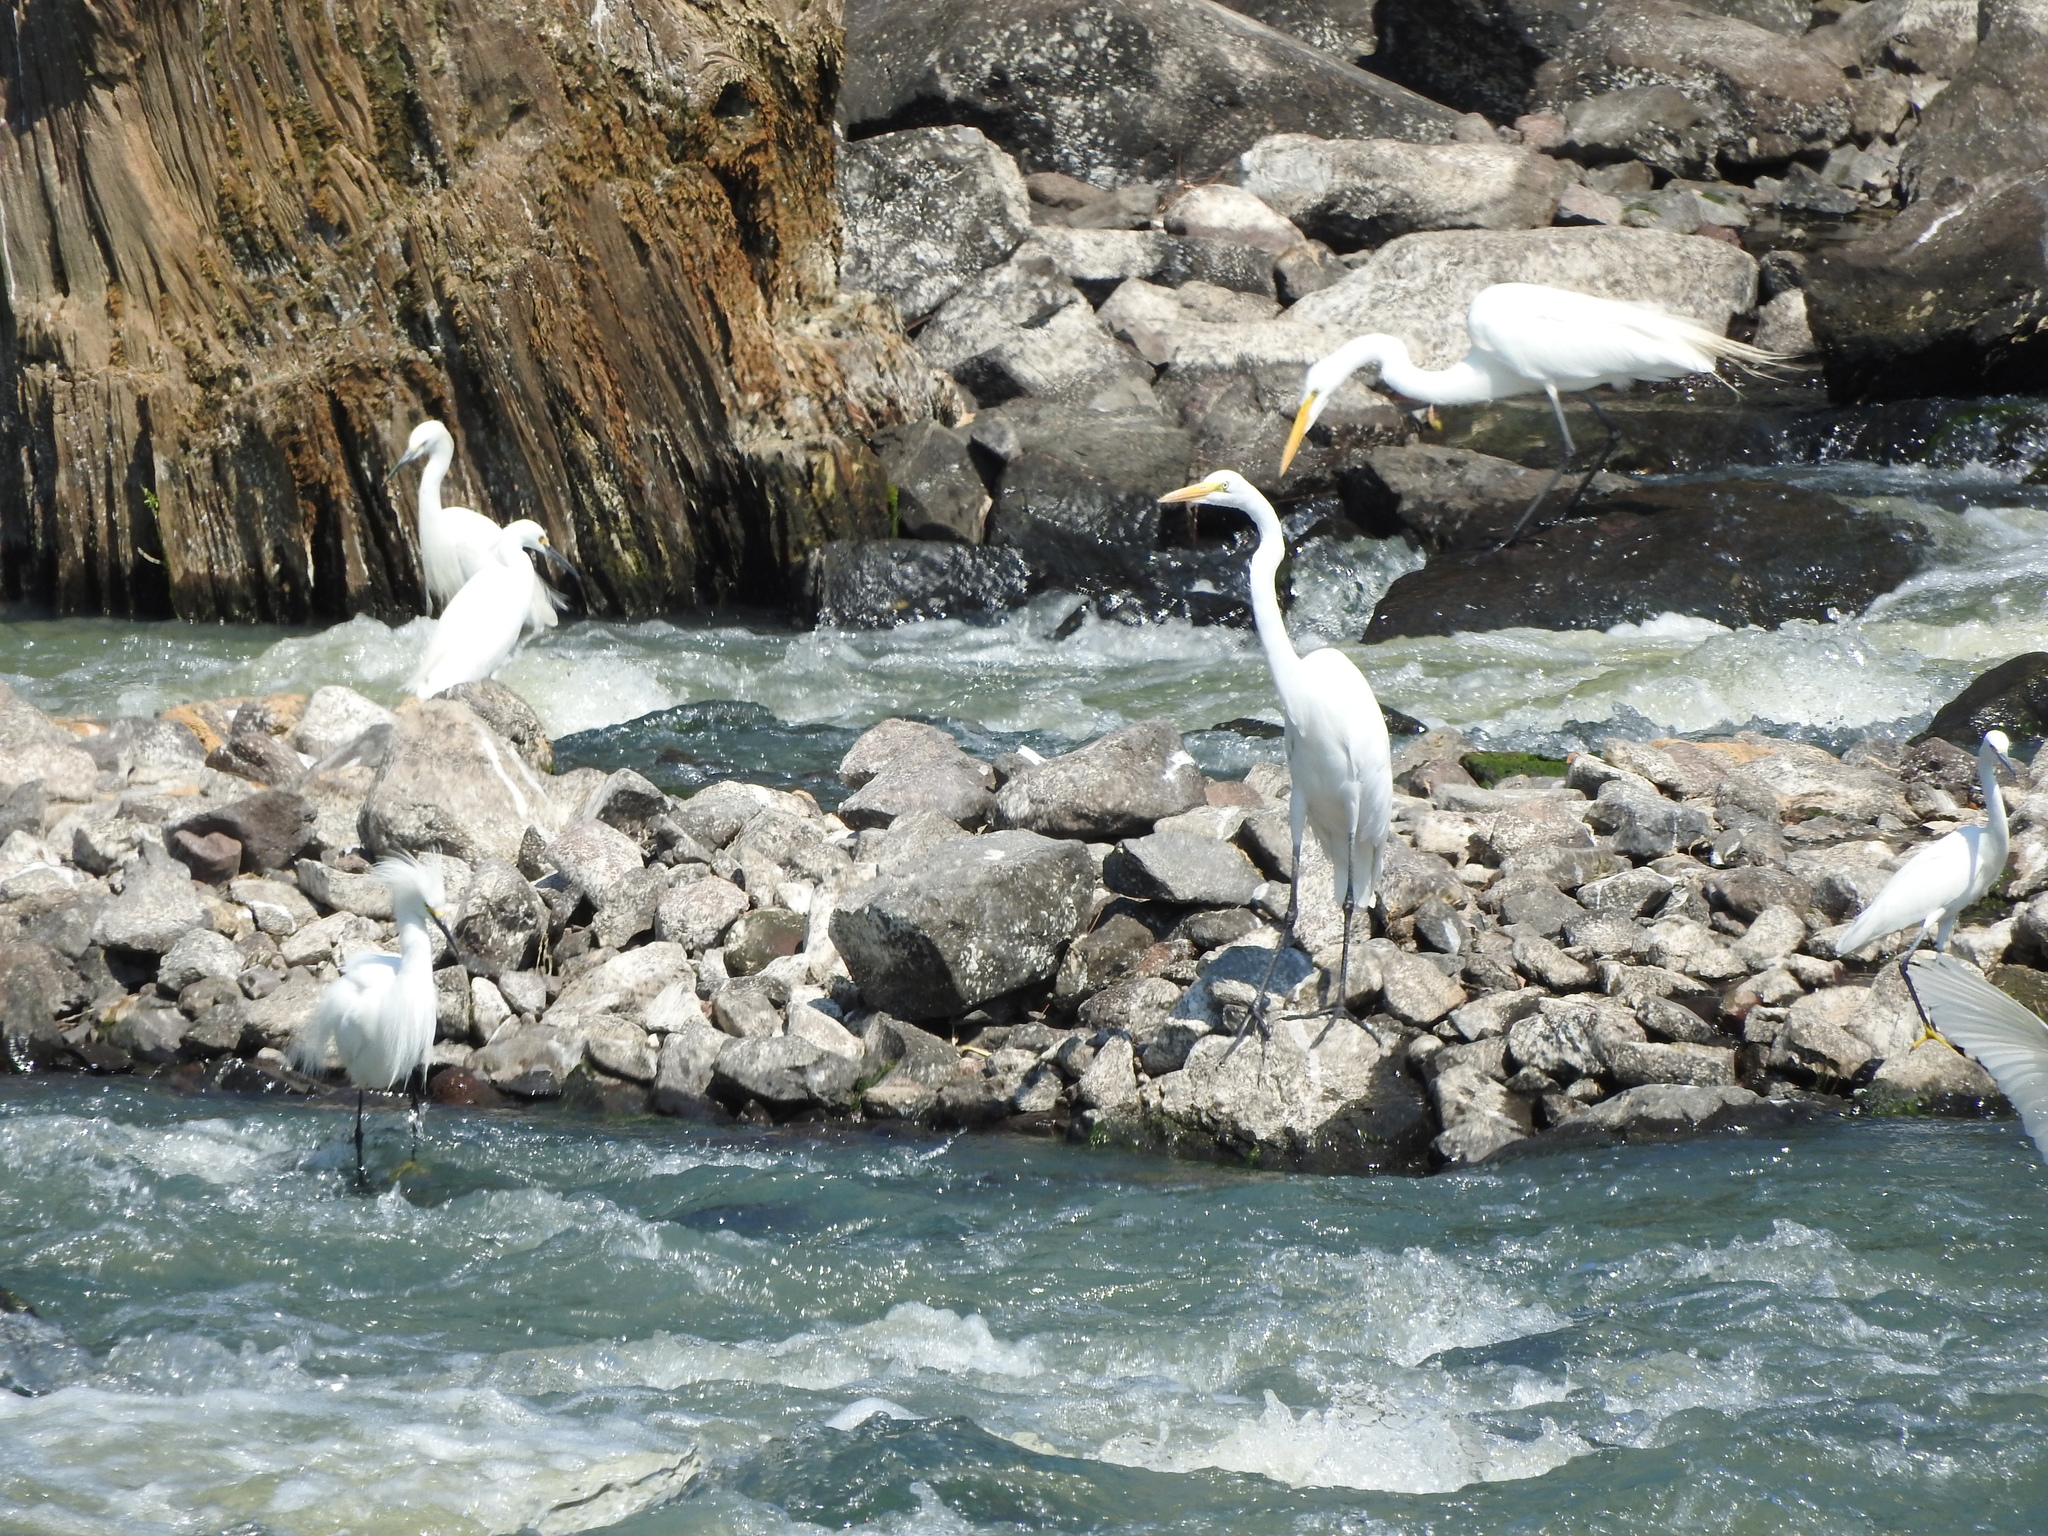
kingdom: Animalia
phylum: Chordata
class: Aves
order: Pelecaniformes
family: Ardeidae
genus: Ardea
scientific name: Ardea alba
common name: Great egret
